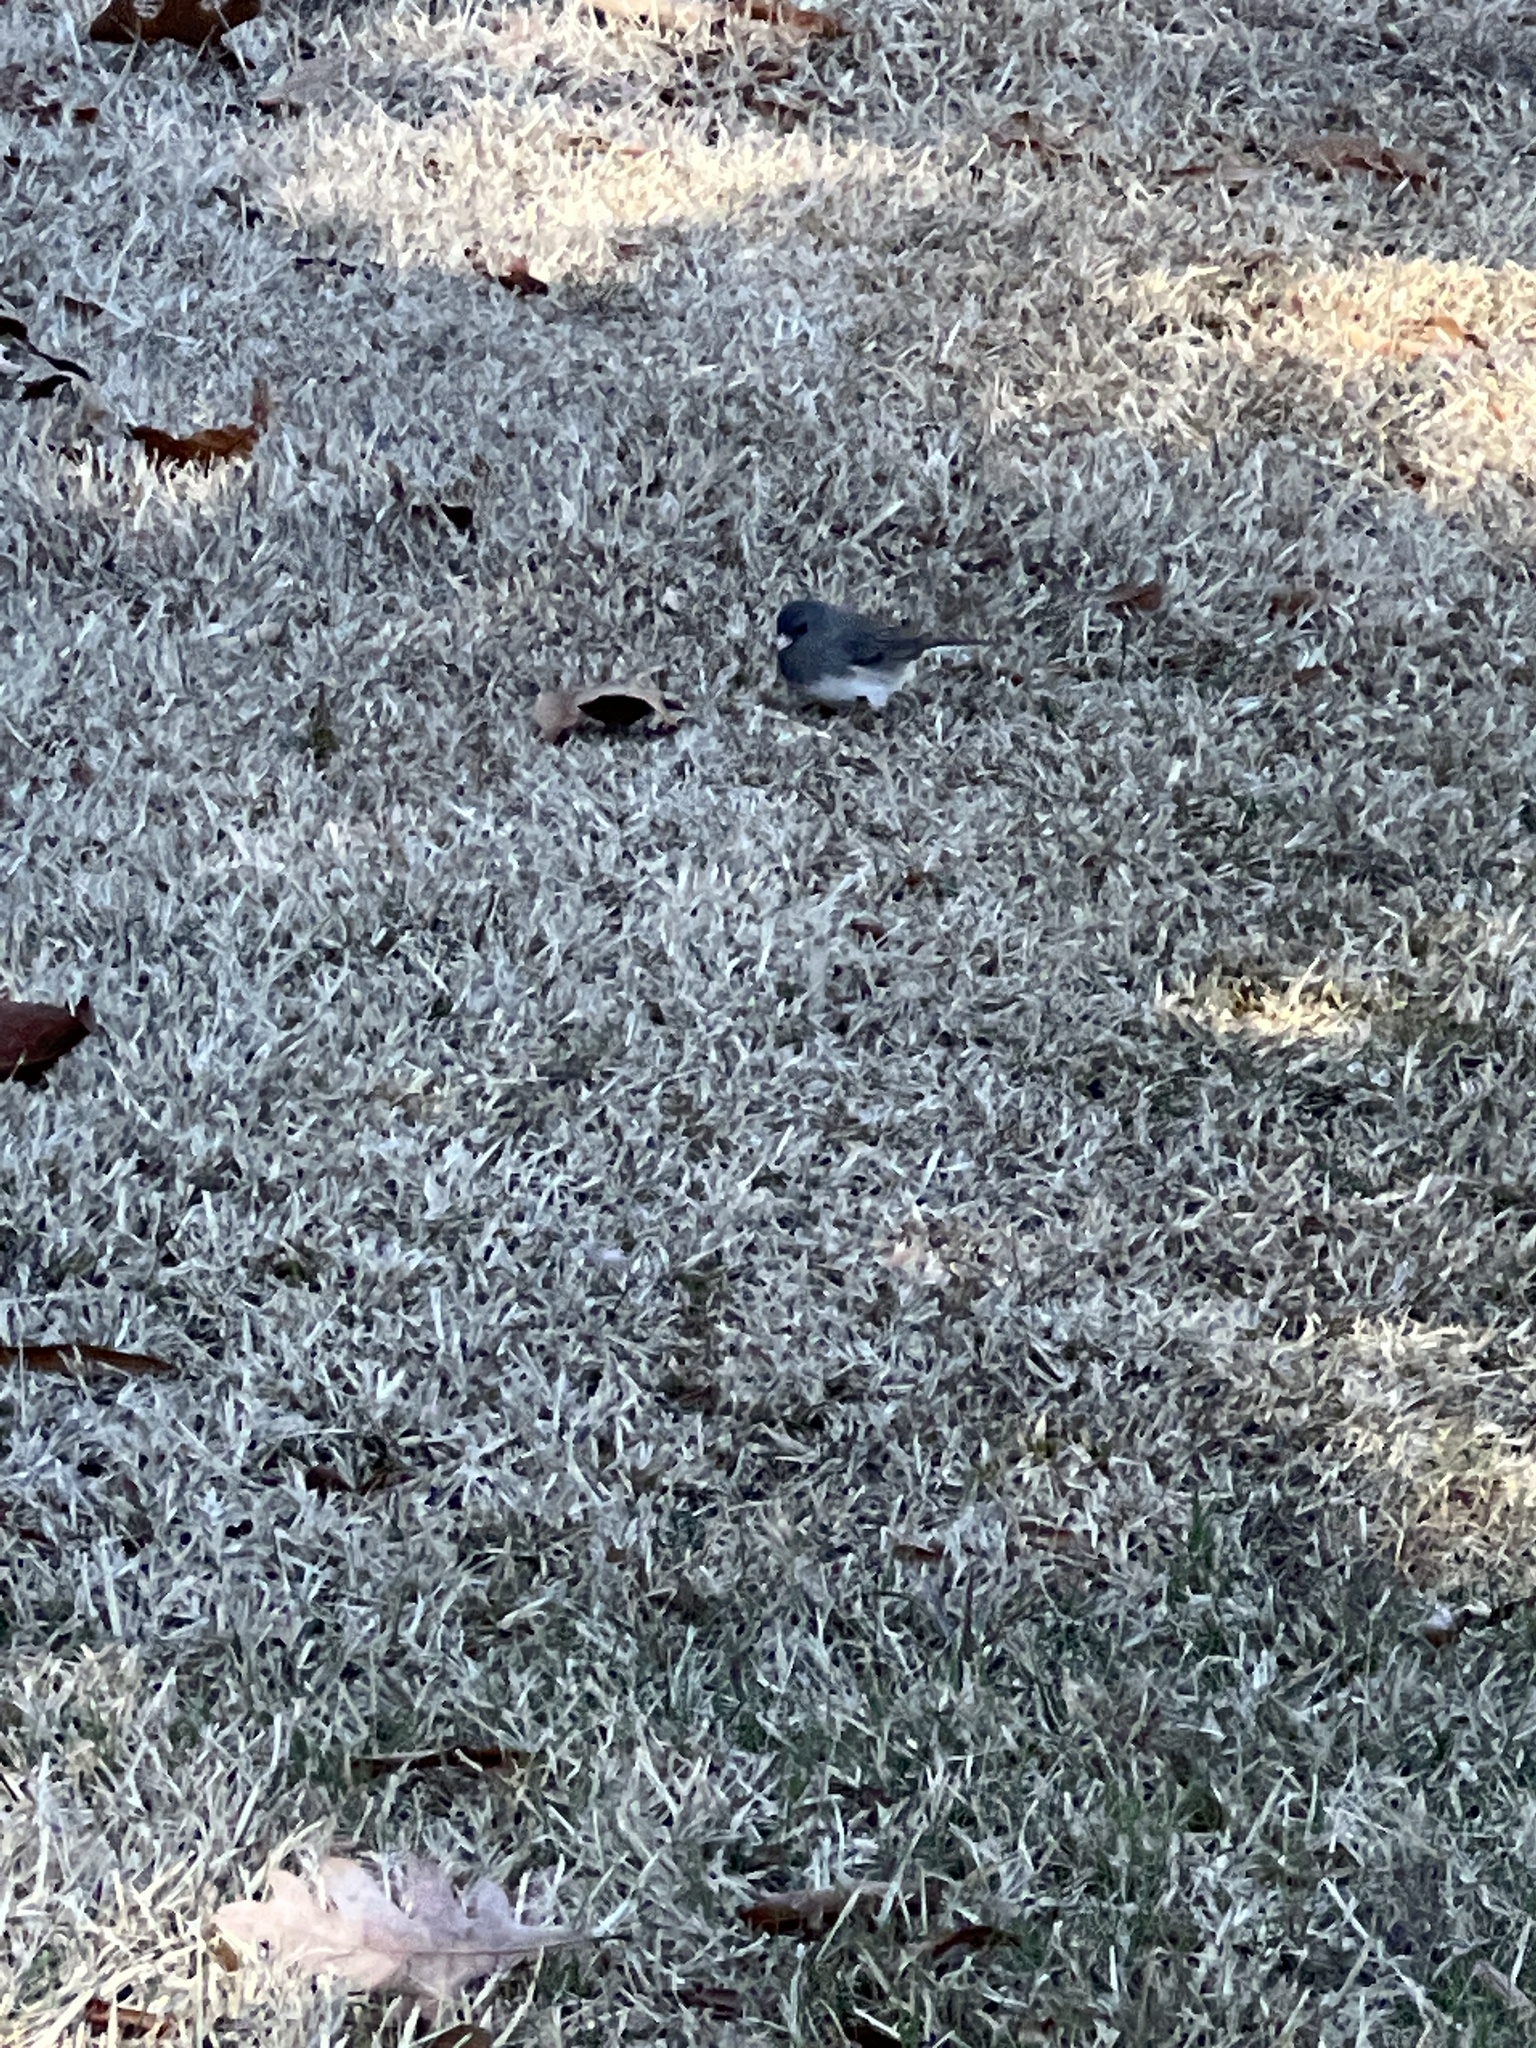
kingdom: Animalia
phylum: Chordata
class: Aves
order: Passeriformes
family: Passerellidae
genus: Junco
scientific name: Junco hyemalis
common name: Dark-eyed junco
